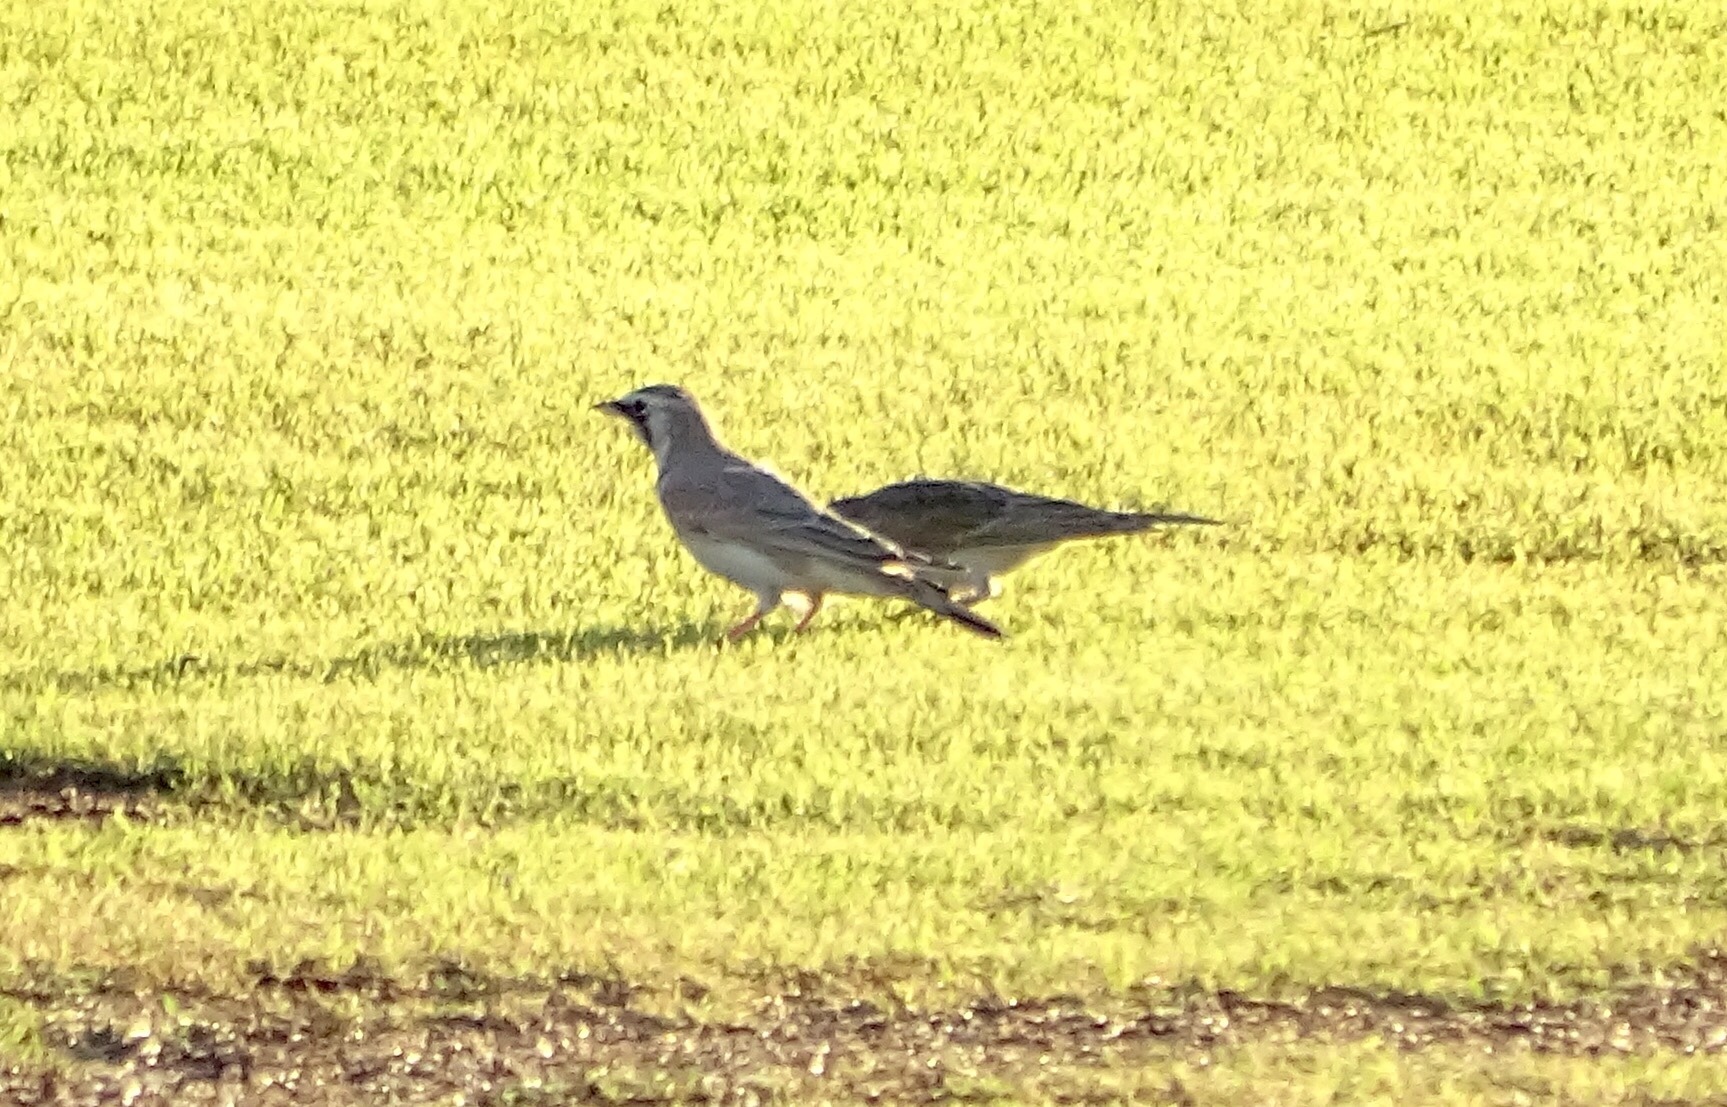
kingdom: Animalia
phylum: Chordata
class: Aves
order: Passeriformes
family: Alaudidae
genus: Eremophila
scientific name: Eremophila alpestris
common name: Horned lark
